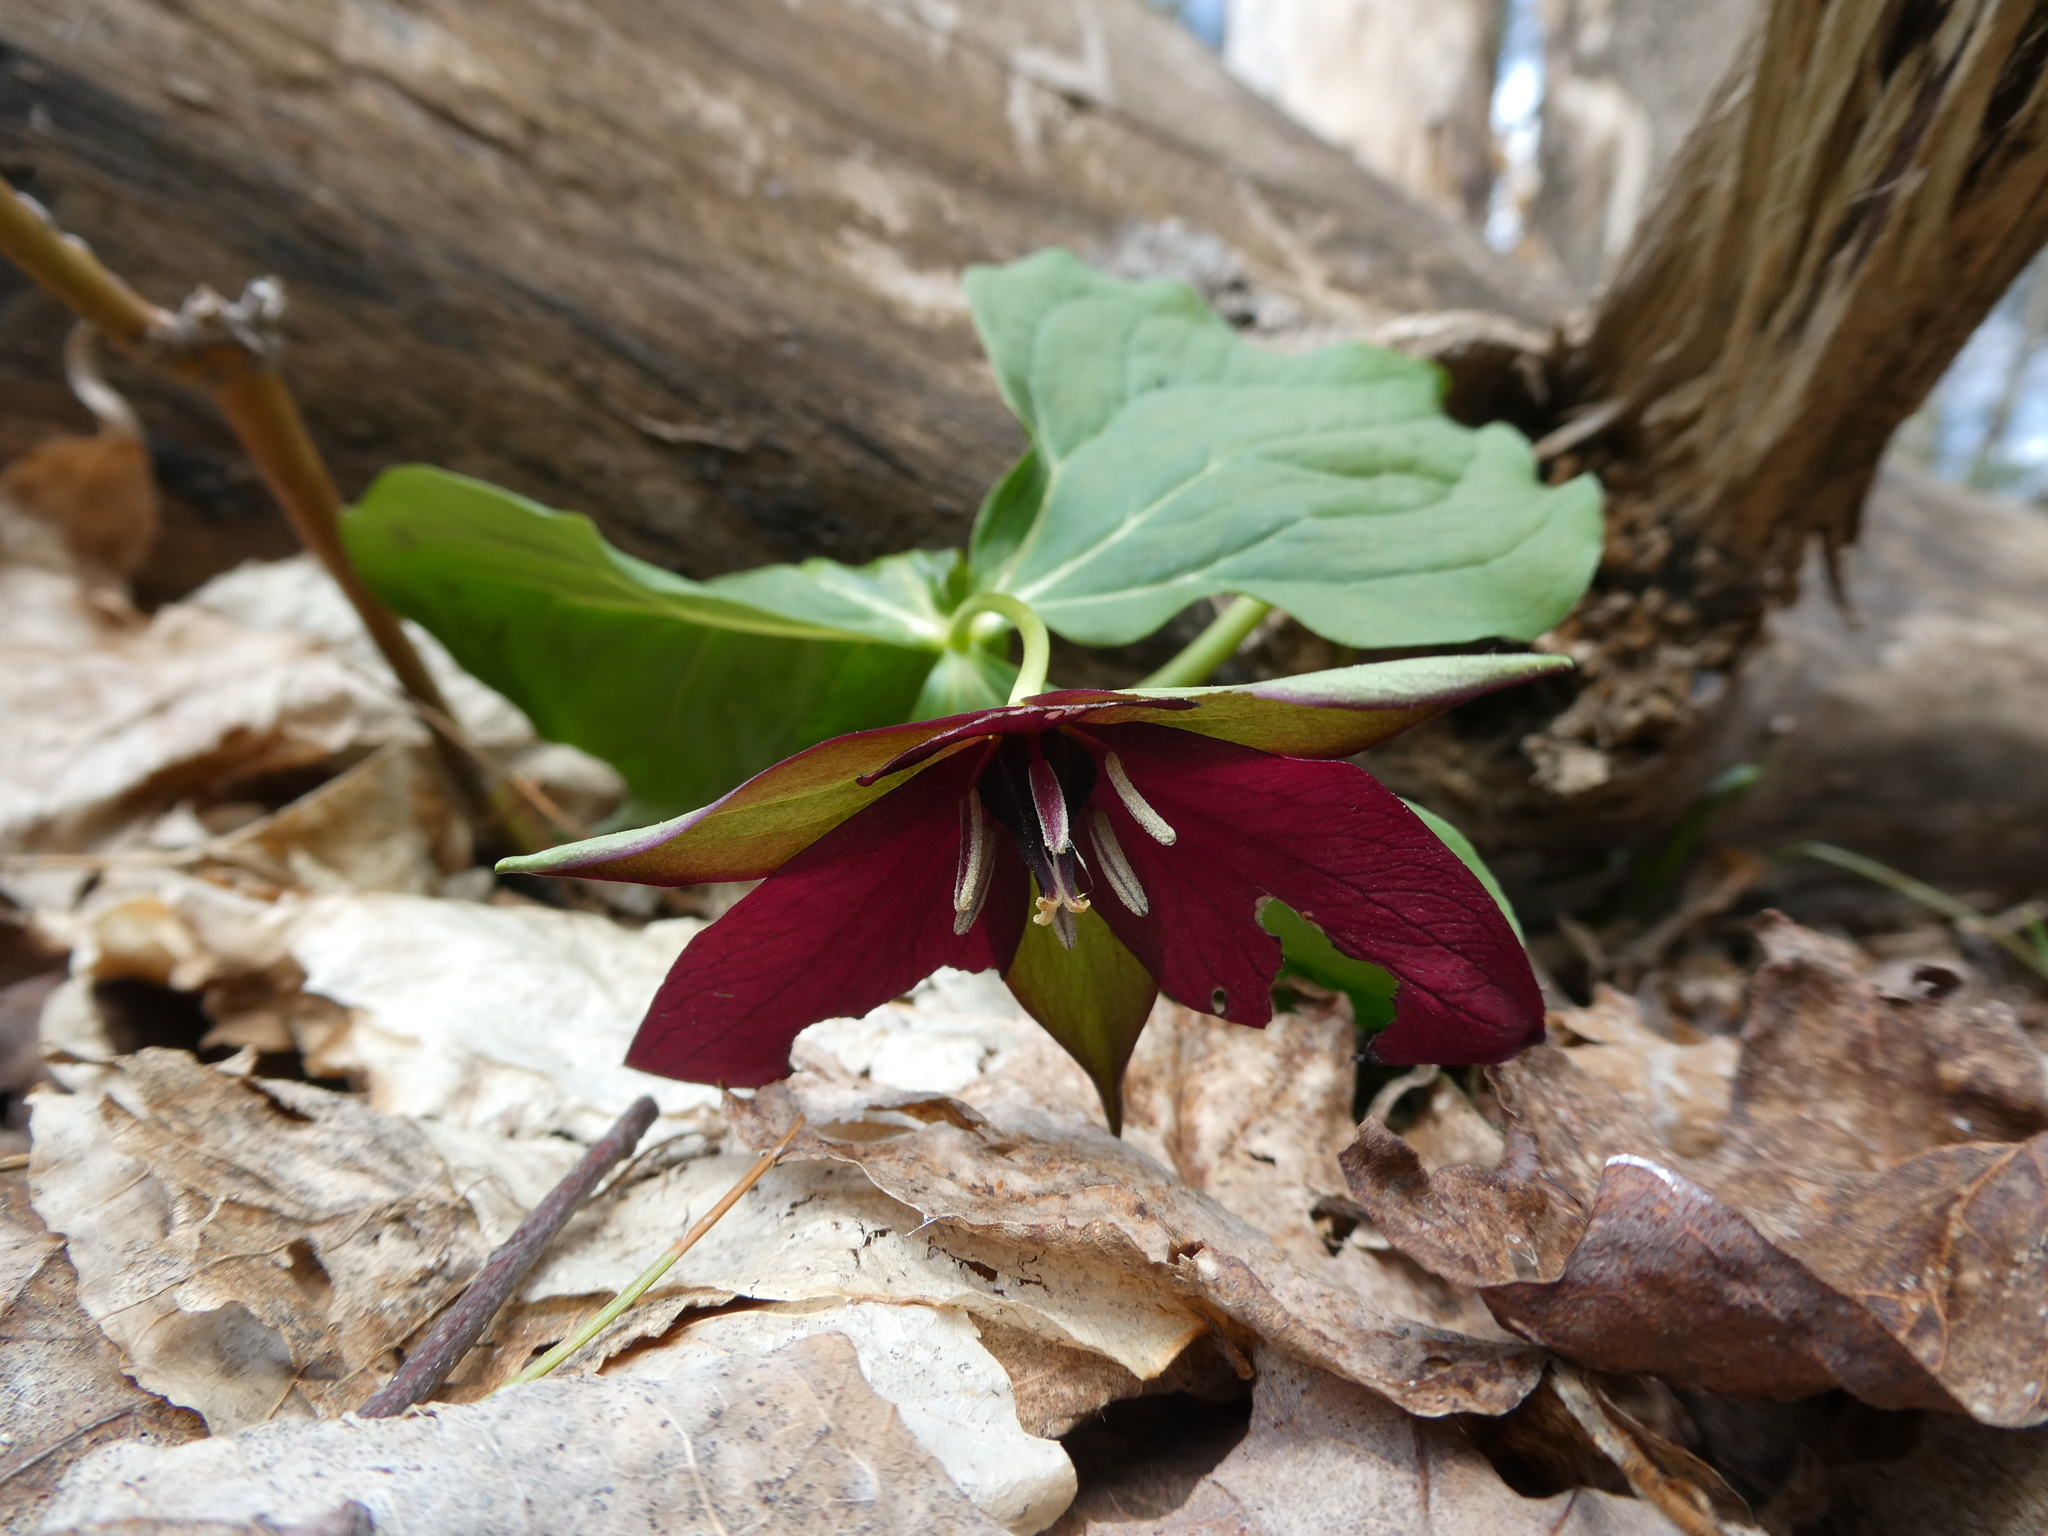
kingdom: Plantae
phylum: Tracheophyta
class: Liliopsida
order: Liliales
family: Melanthiaceae
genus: Trillium
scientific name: Trillium erectum
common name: Purple trillium
